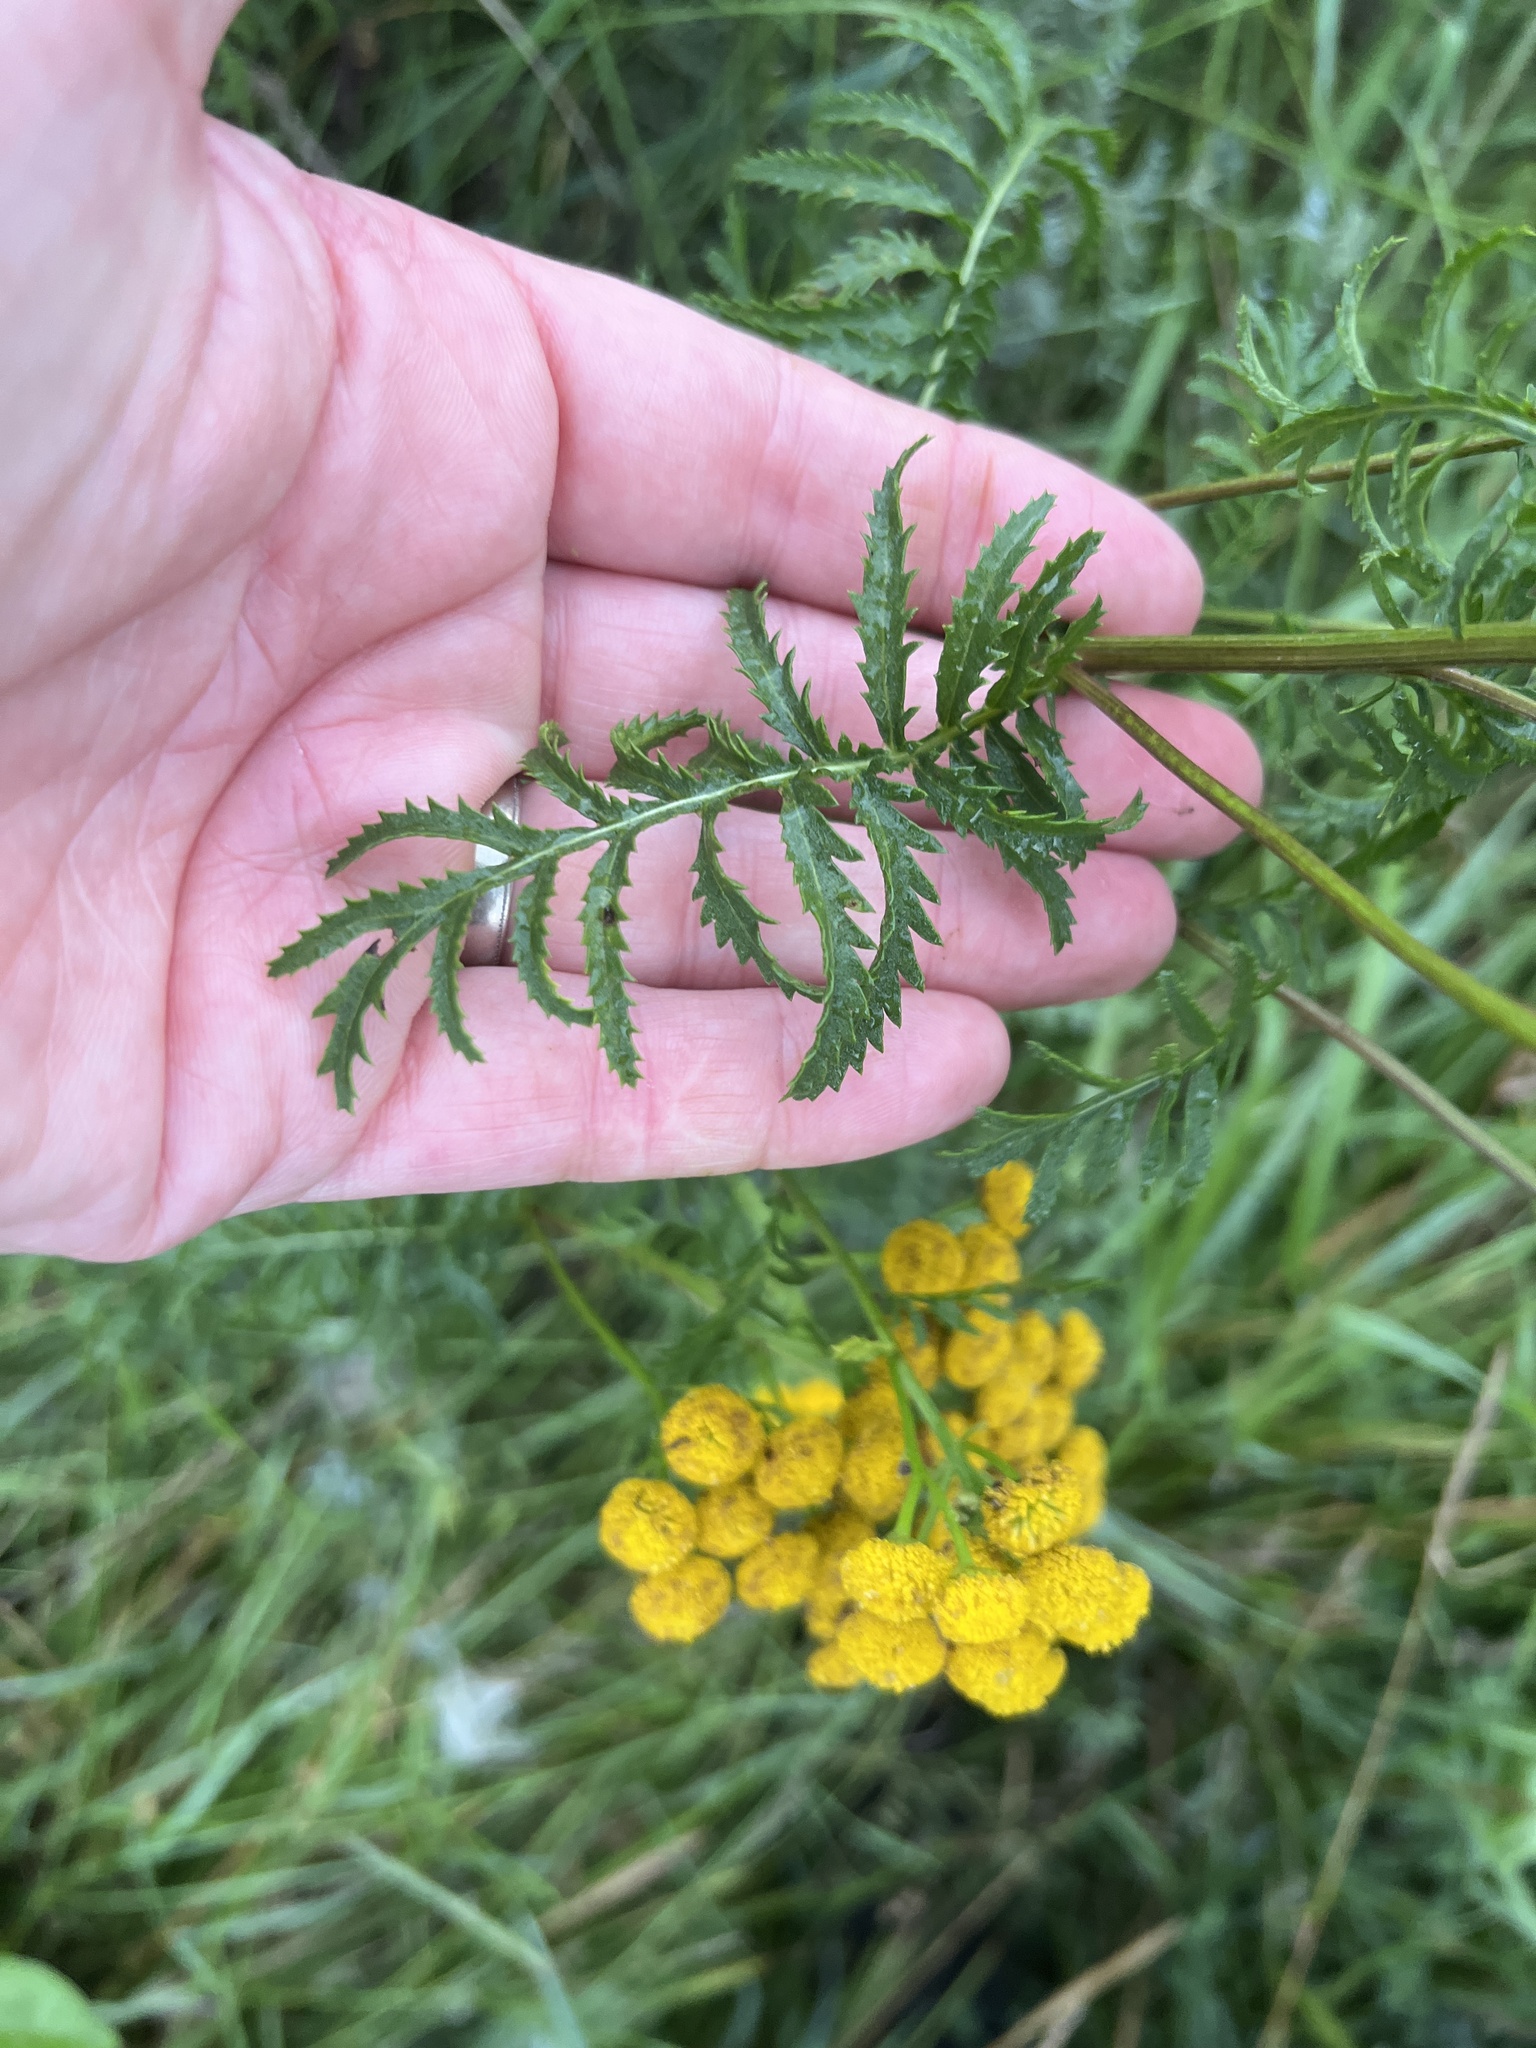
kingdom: Plantae
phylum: Tracheophyta
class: Magnoliopsida
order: Asterales
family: Asteraceae
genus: Tanacetum
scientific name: Tanacetum vulgare
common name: Common tansy
